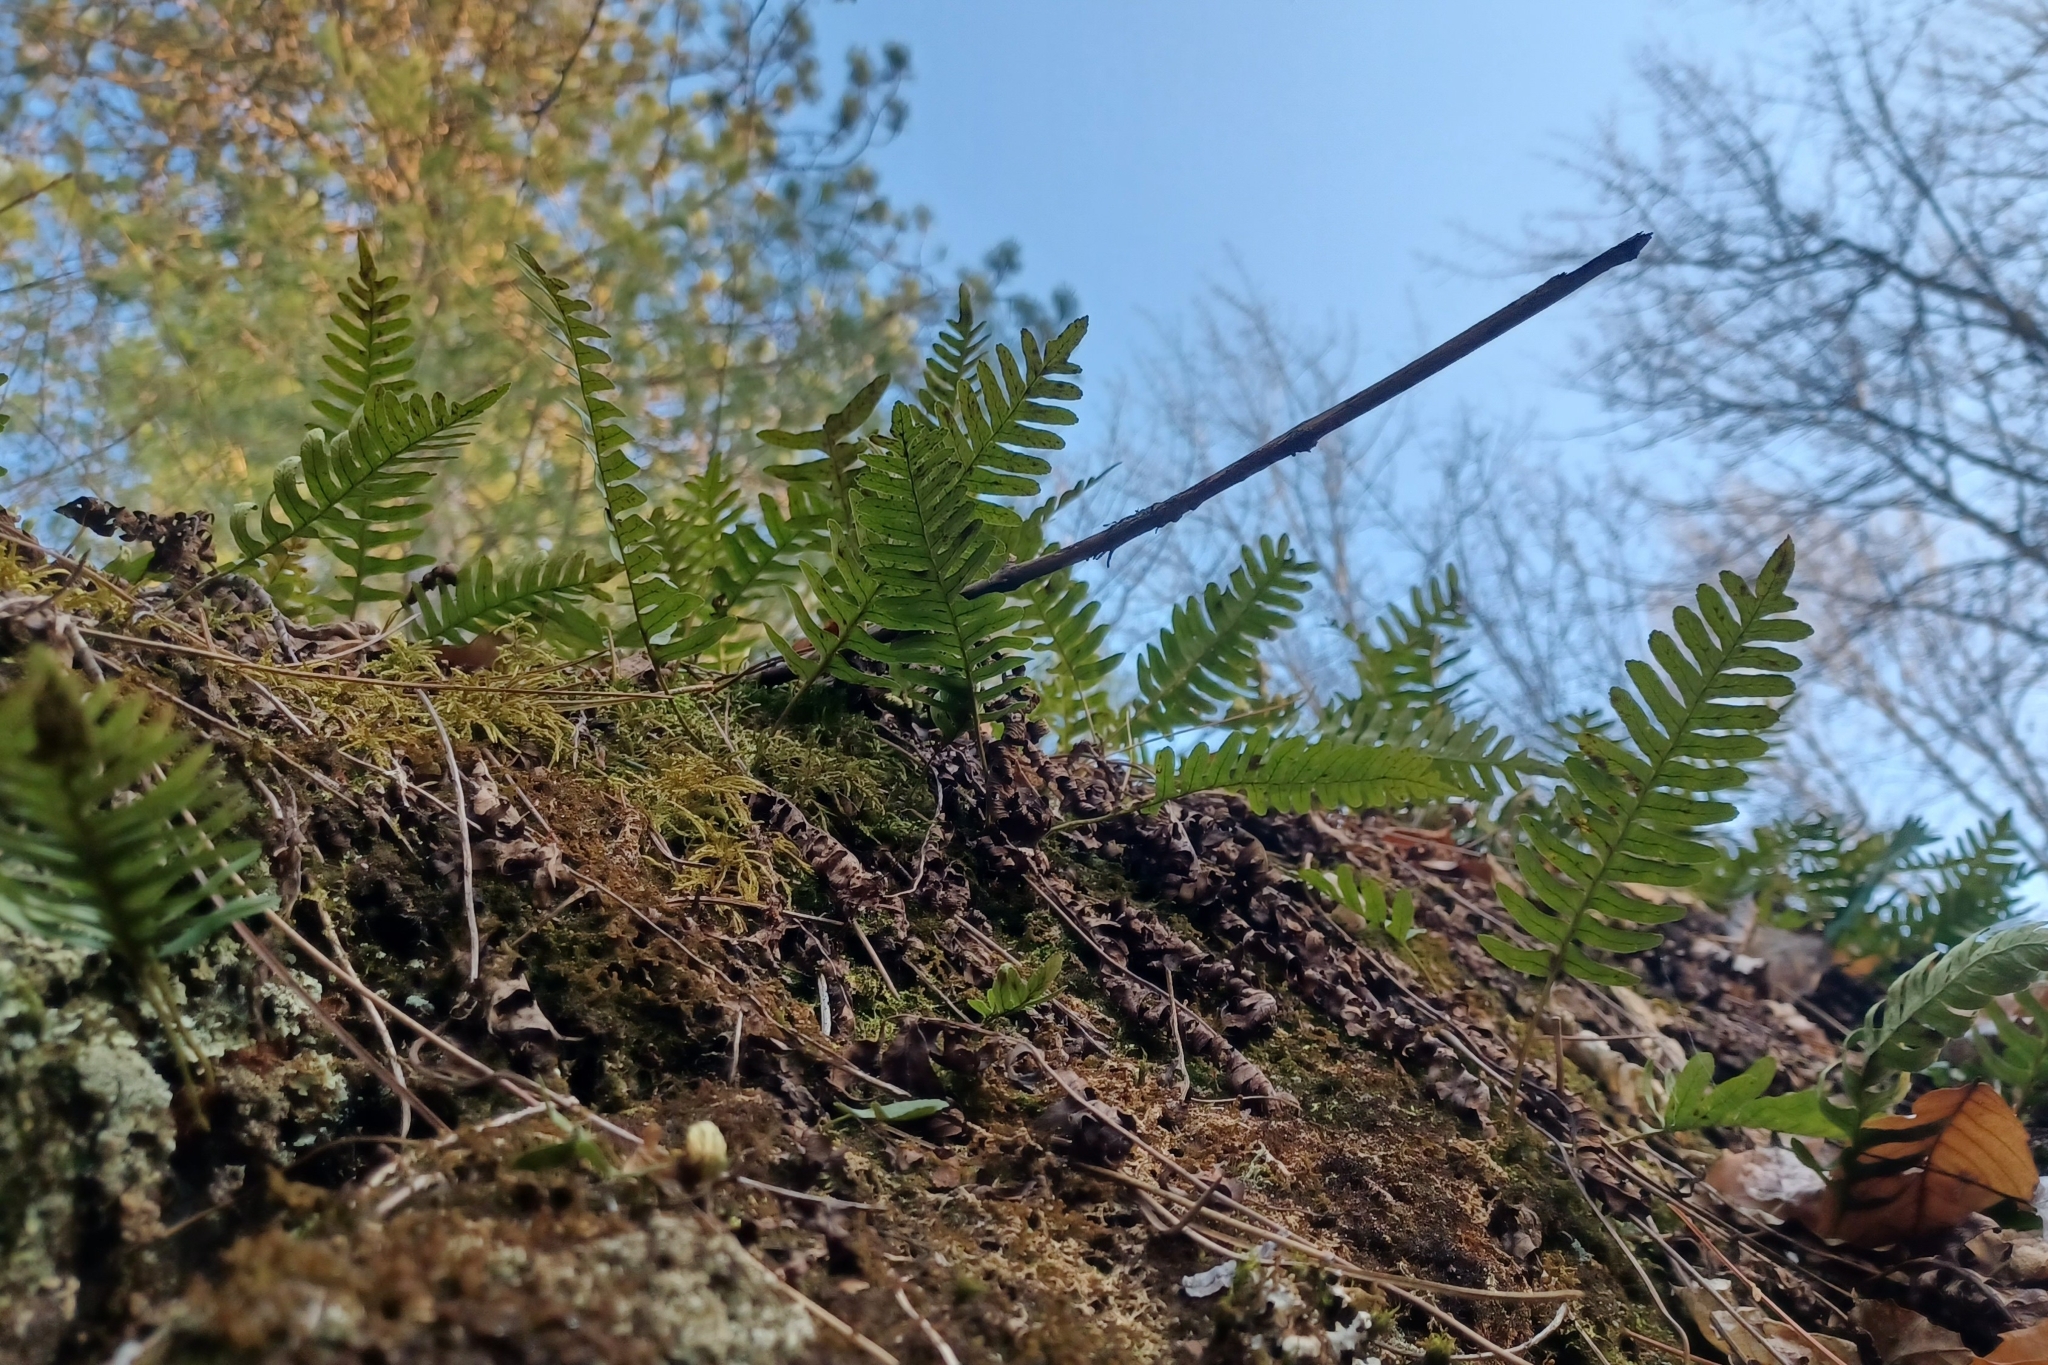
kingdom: Plantae
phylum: Tracheophyta
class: Polypodiopsida
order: Polypodiales
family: Polypodiaceae
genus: Polypodium
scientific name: Polypodium virginianum
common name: American wall fern
